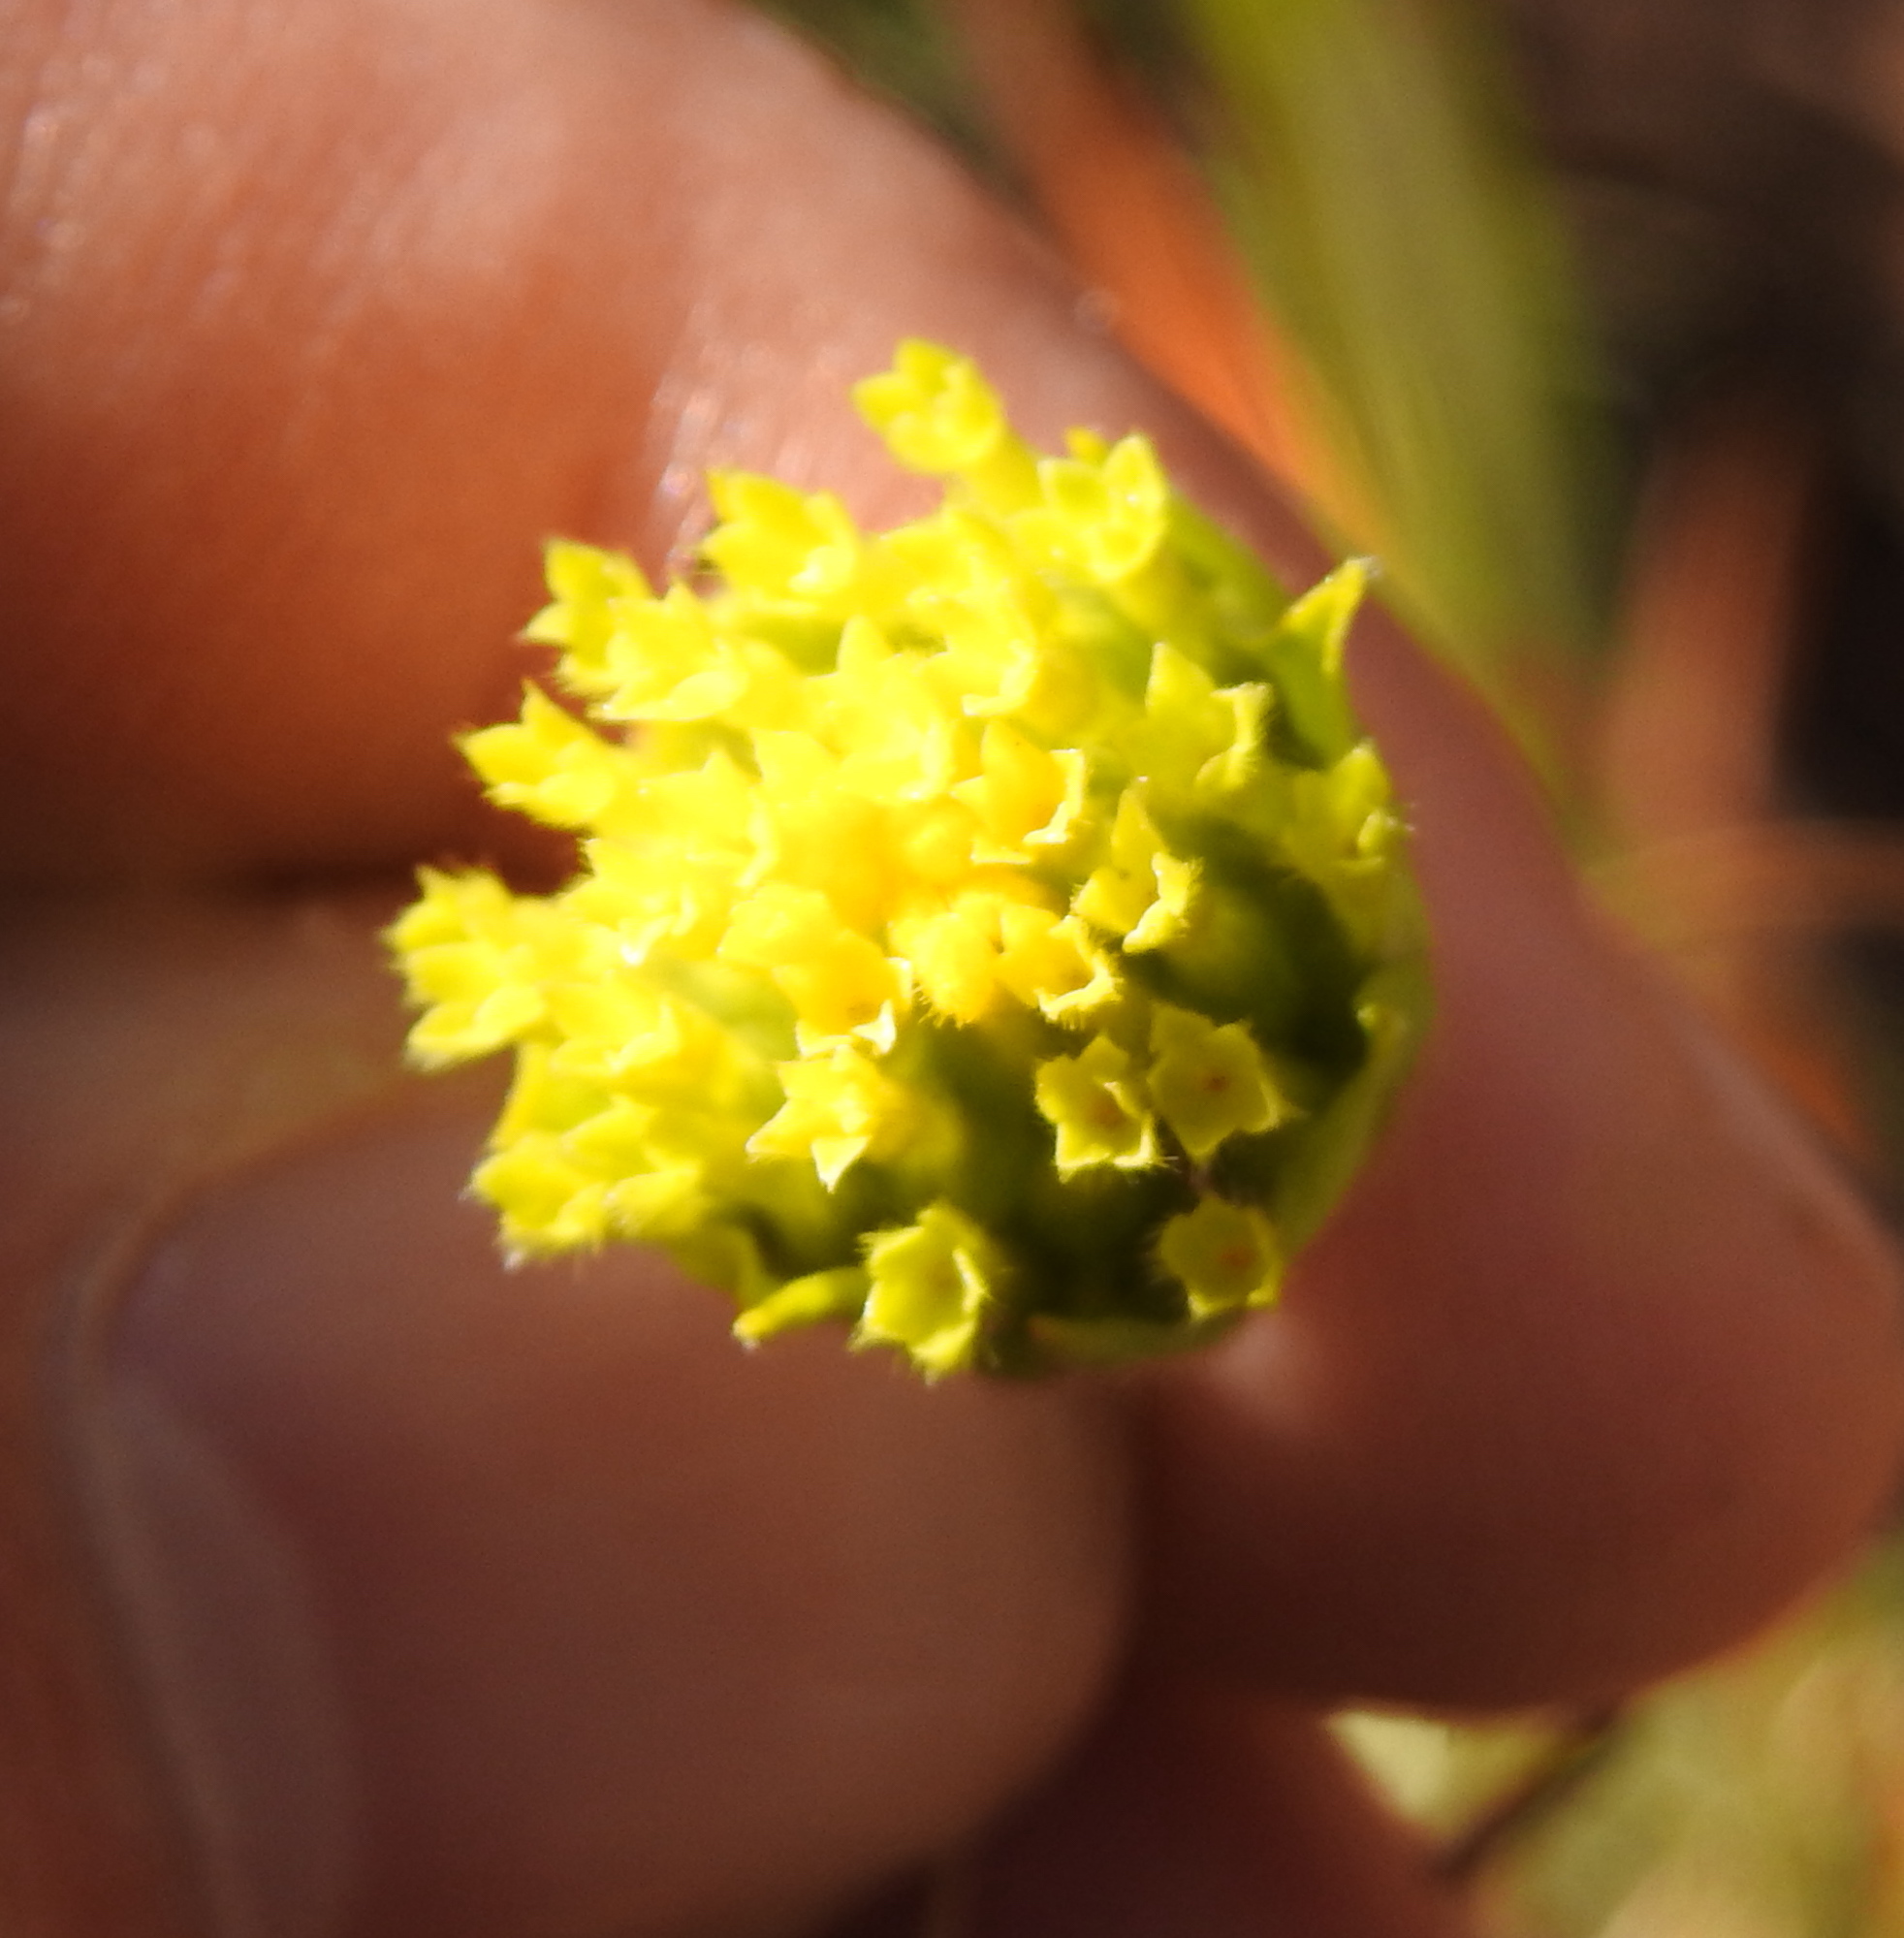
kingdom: Plantae
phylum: Tracheophyta
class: Magnoliopsida
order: Malvales
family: Thymelaeaceae
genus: Gnidia
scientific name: Gnidia sericocephala
